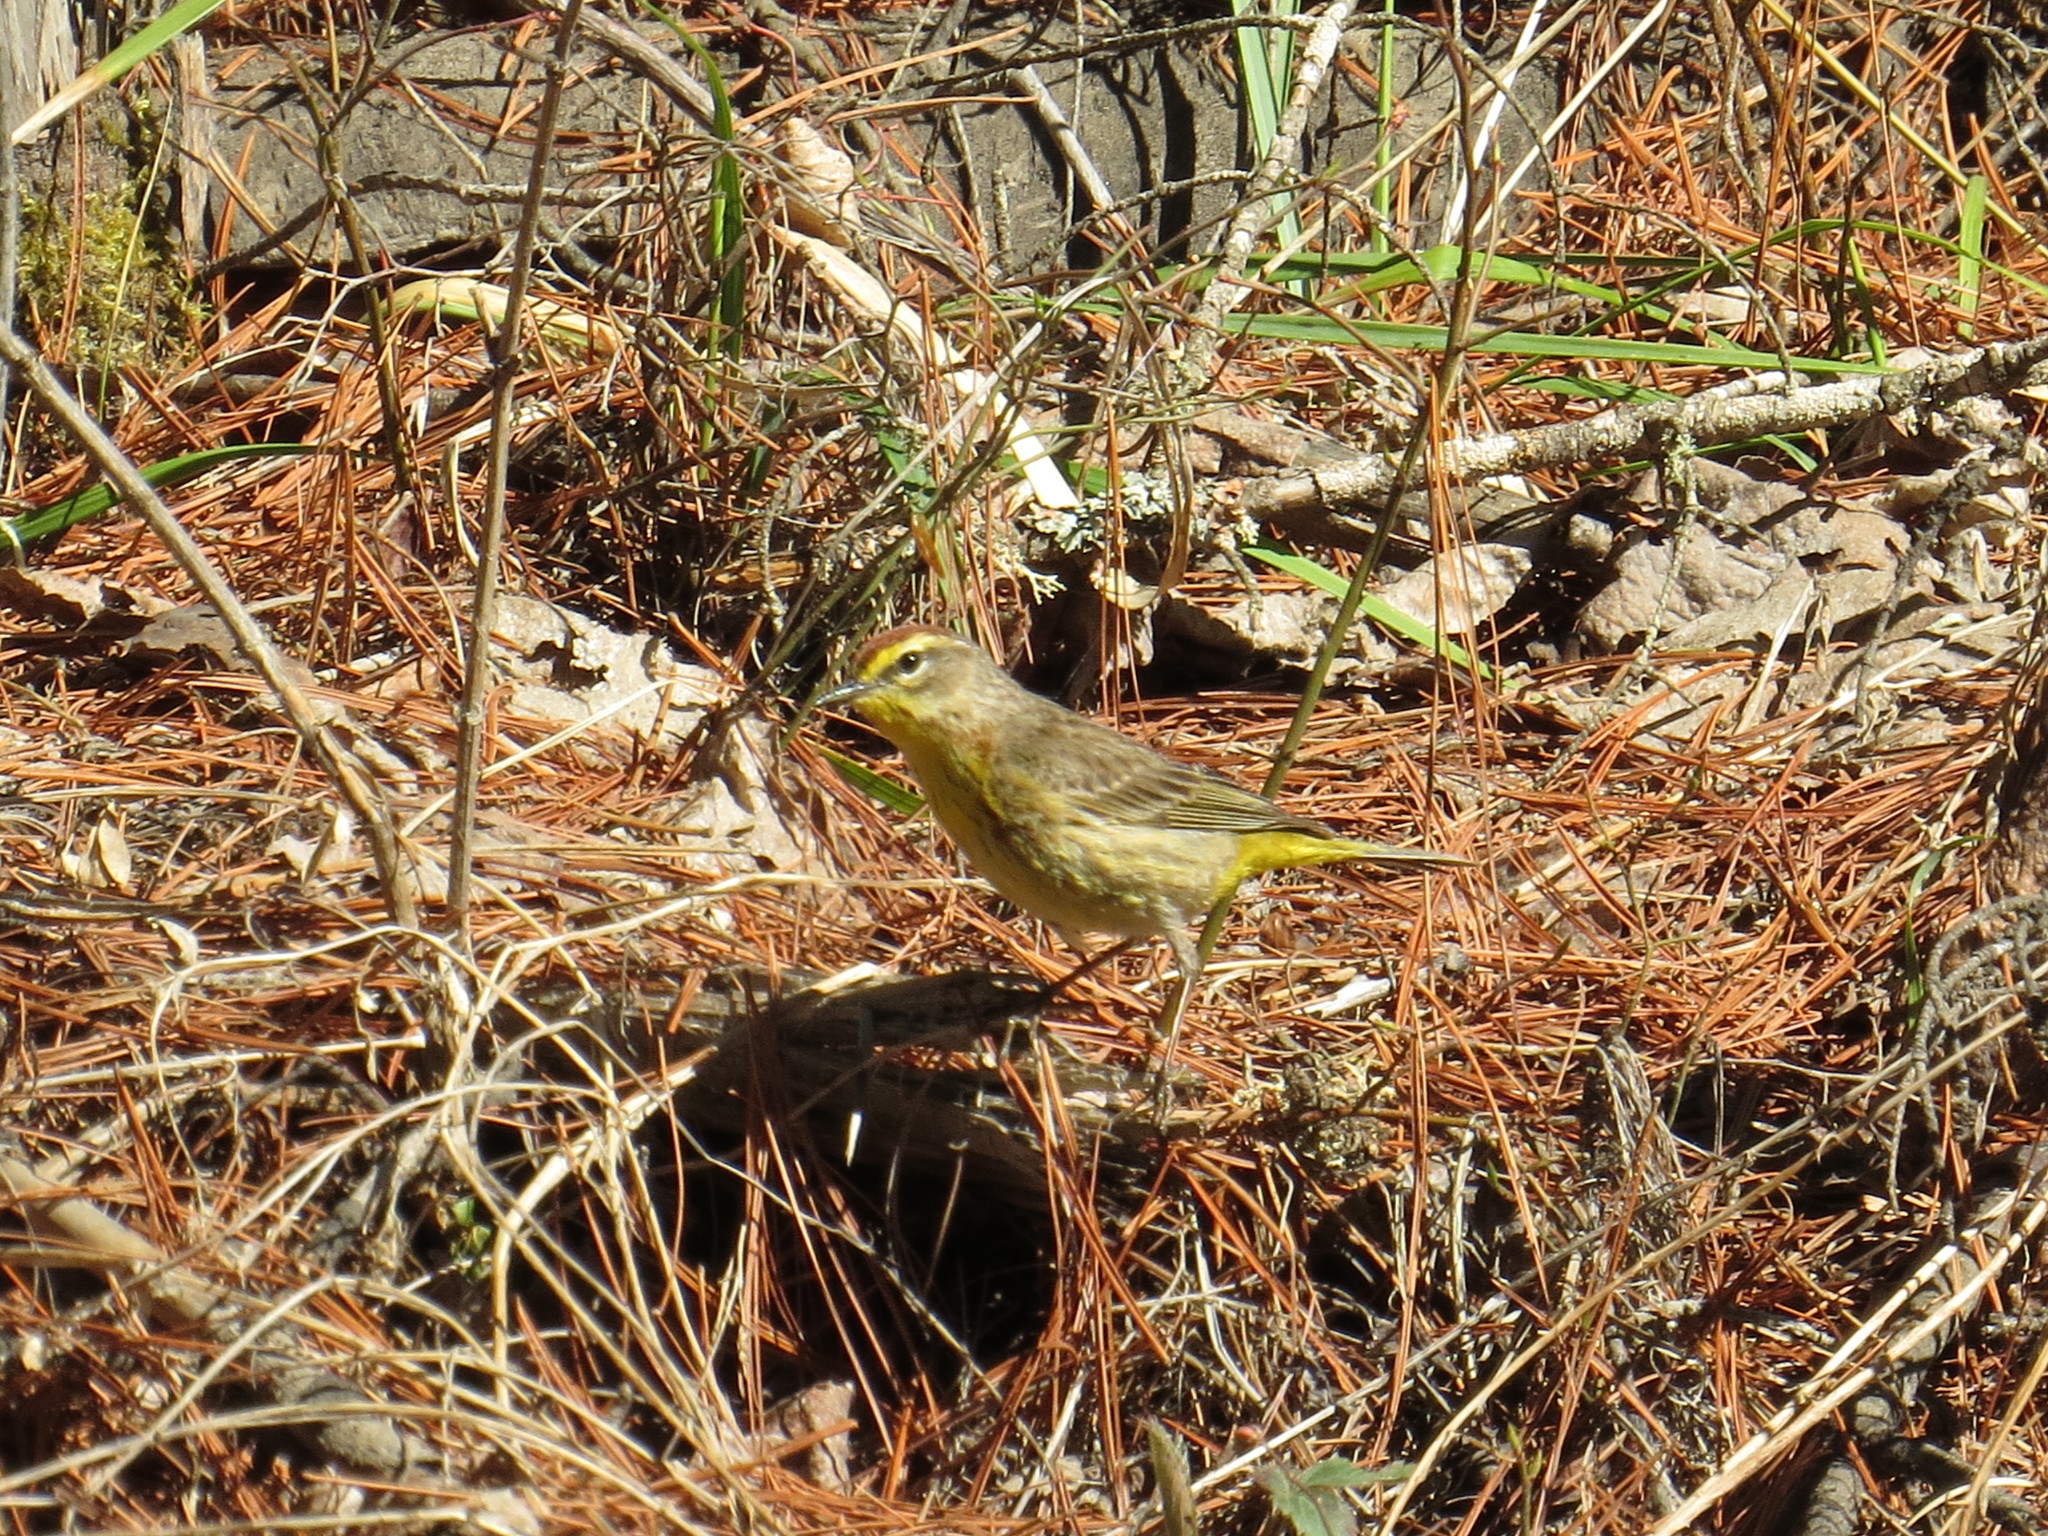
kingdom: Animalia
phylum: Chordata
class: Aves
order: Passeriformes
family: Parulidae
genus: Setophaga
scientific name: Setophaga palmarum
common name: Palm warbler
